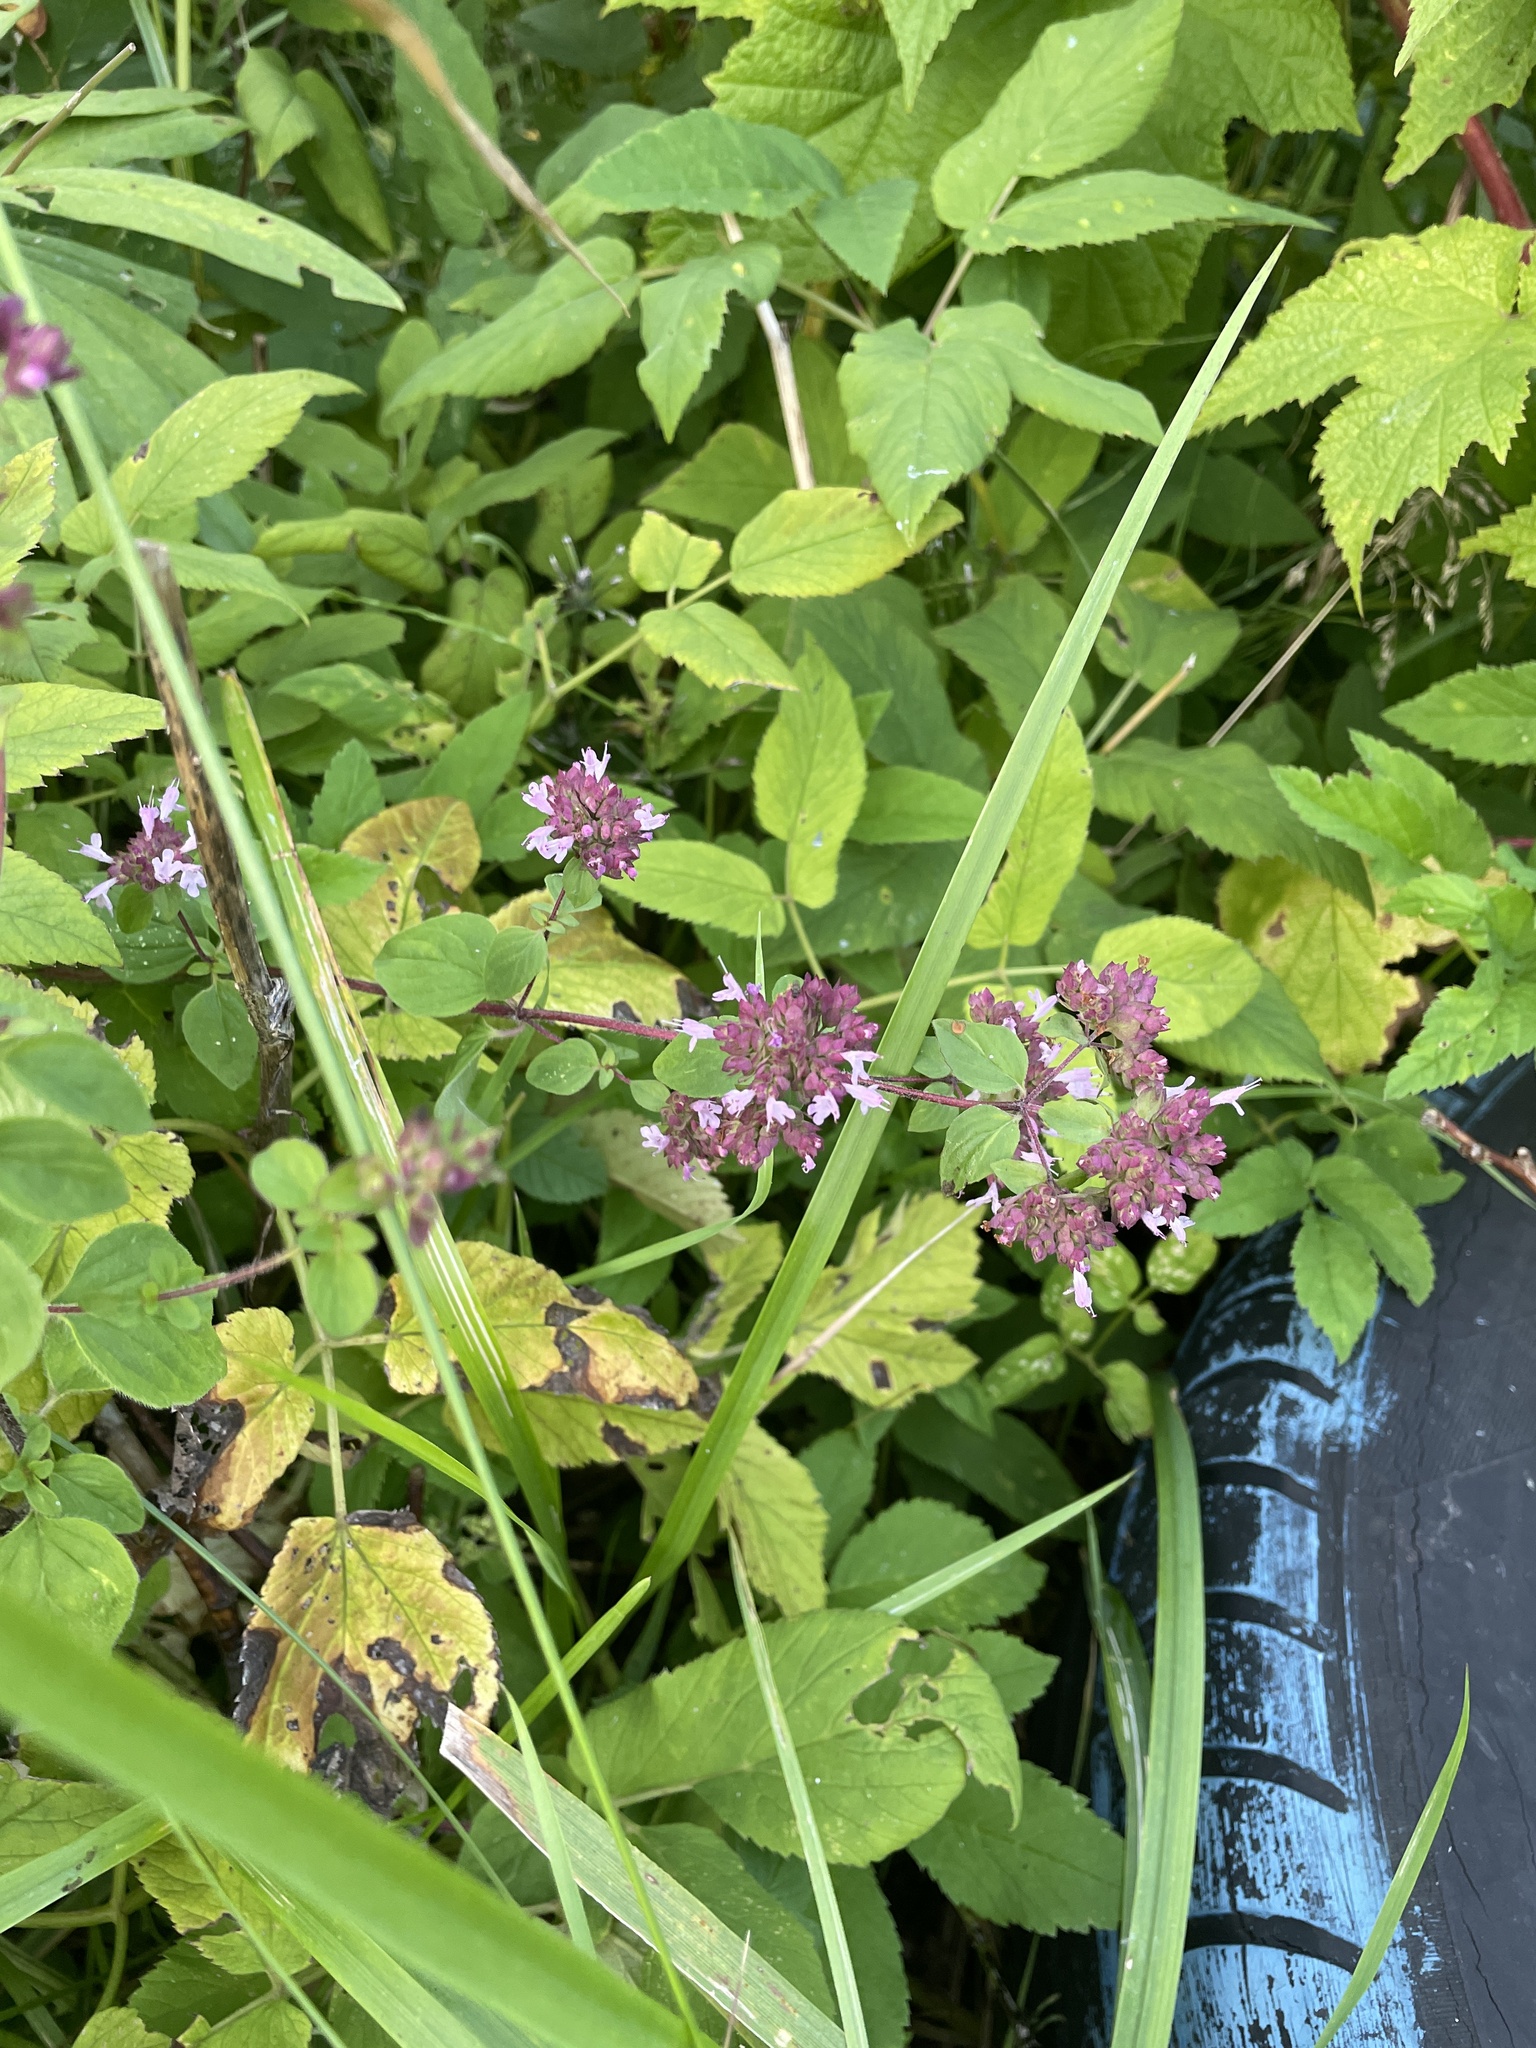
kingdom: Plantae
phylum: Tracheophyta
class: Magnoliopsida
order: Lamiales
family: Lamiaceae
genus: Origanum
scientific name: Origanum vulgare
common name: Wild marjoram
